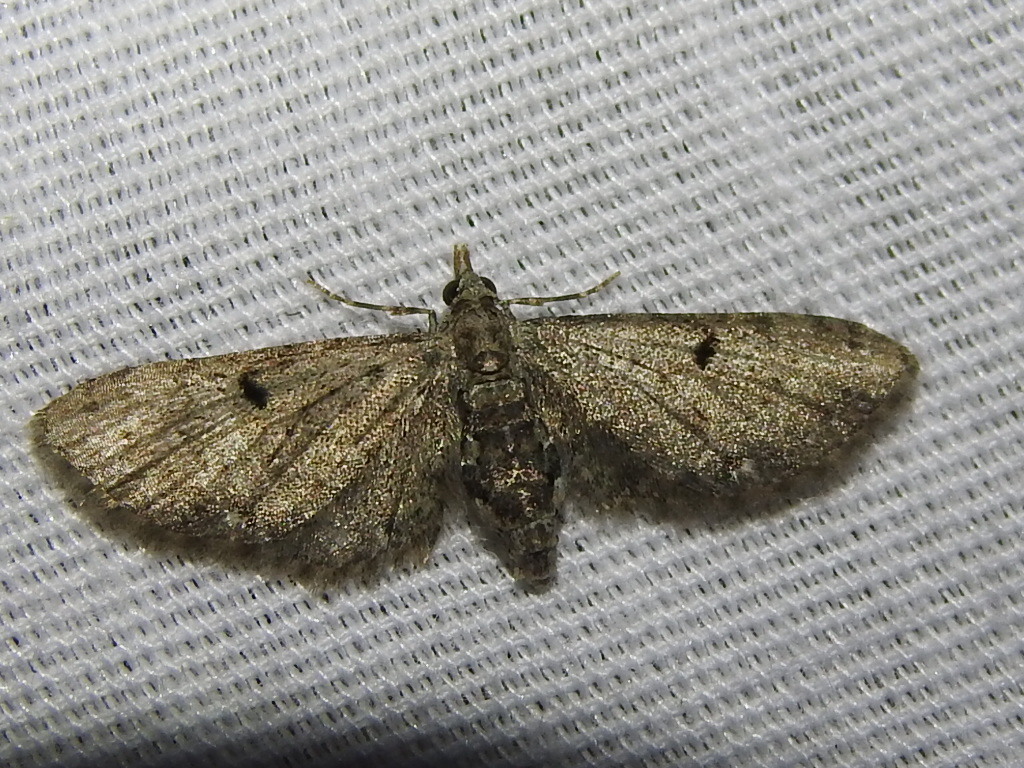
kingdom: Animalia
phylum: Arthropoda
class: Insecta
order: Lepidoptera
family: Geometridae
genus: Eupithecia
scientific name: Eupithecia miserulata
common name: Common eupithecia
